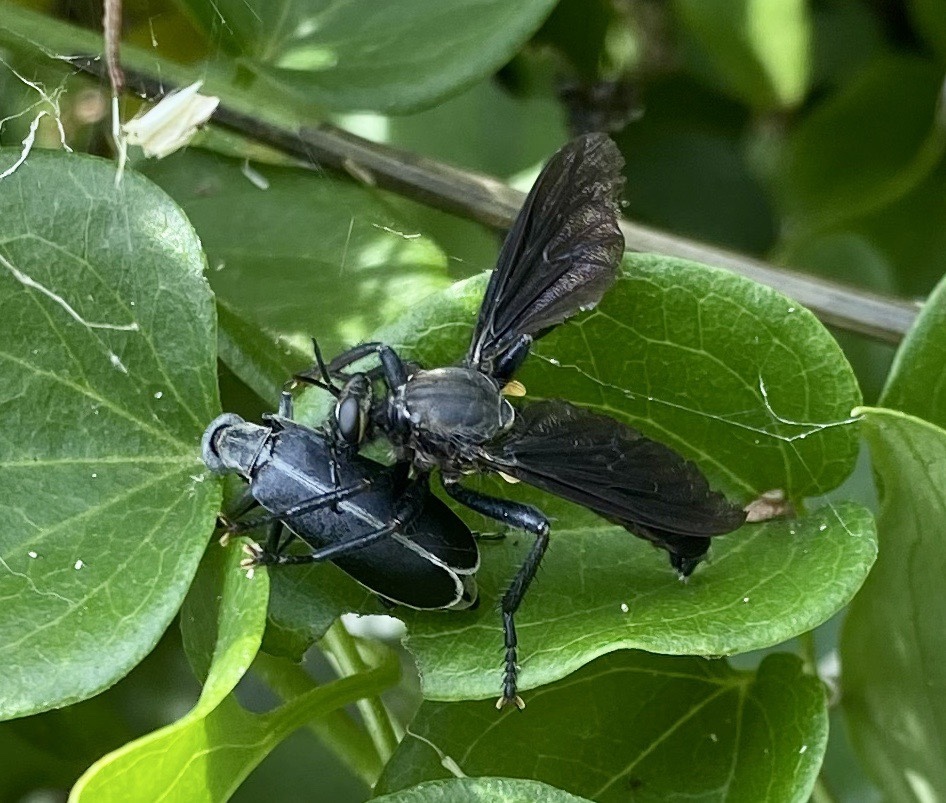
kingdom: Animalia
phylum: Arthropoda
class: Insecta
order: Diptera
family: Asilidae
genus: Prolepsis
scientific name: Prolepsis tristis
